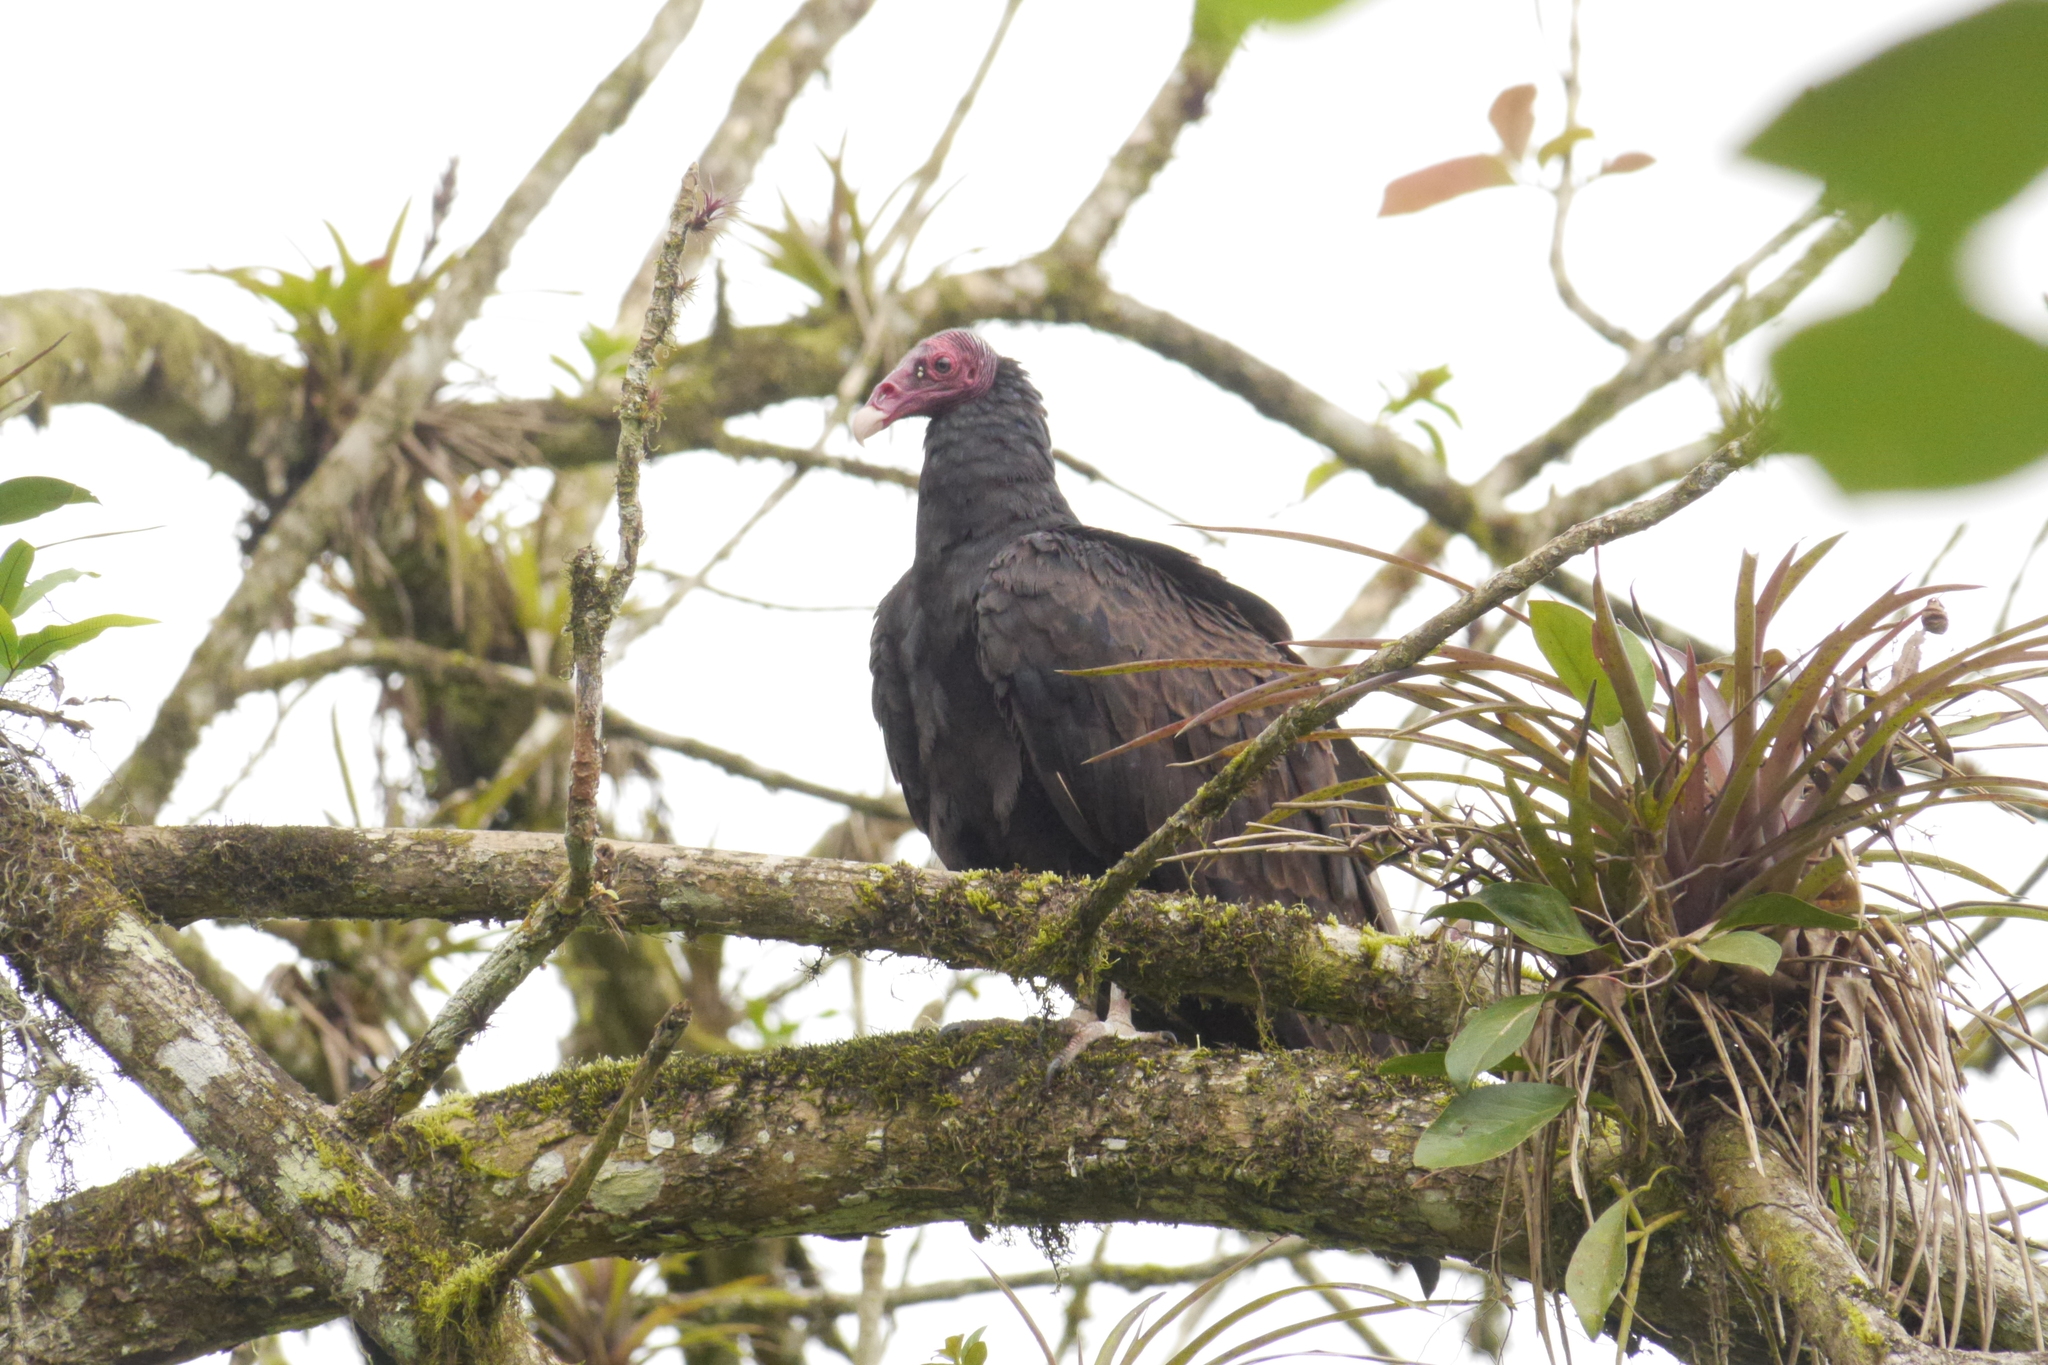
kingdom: Animalia
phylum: Chordata
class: Aves
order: Accipitriformes
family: Cathartidae
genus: Cathartes
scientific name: Cathartes aura
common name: Turkey vulture
